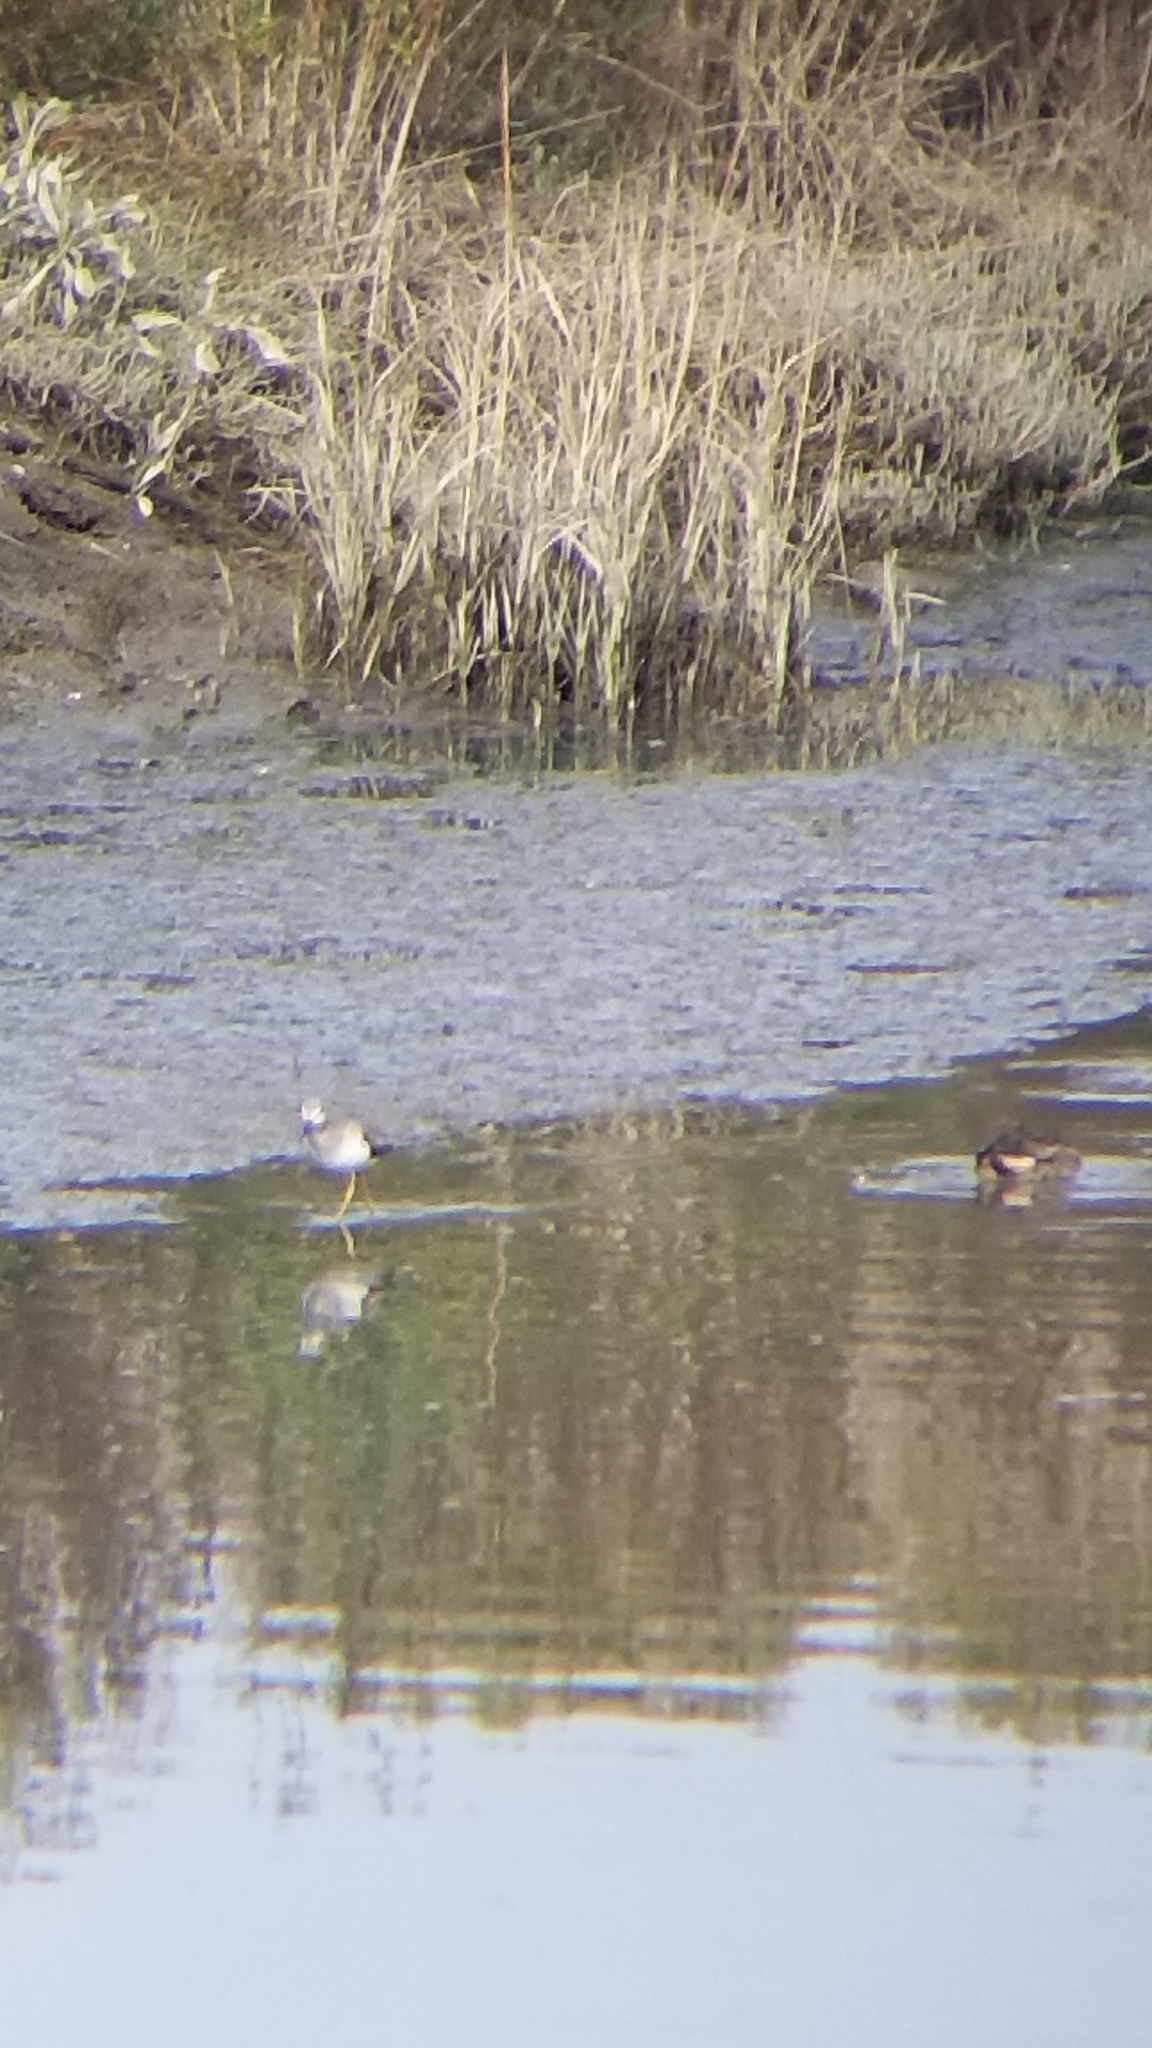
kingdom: Animalia
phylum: Chordata
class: Aves
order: Charadriiformes
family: Scolopacidae
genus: Tringa
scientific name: Tringa melanoleuca
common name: Greater yellowlegs
